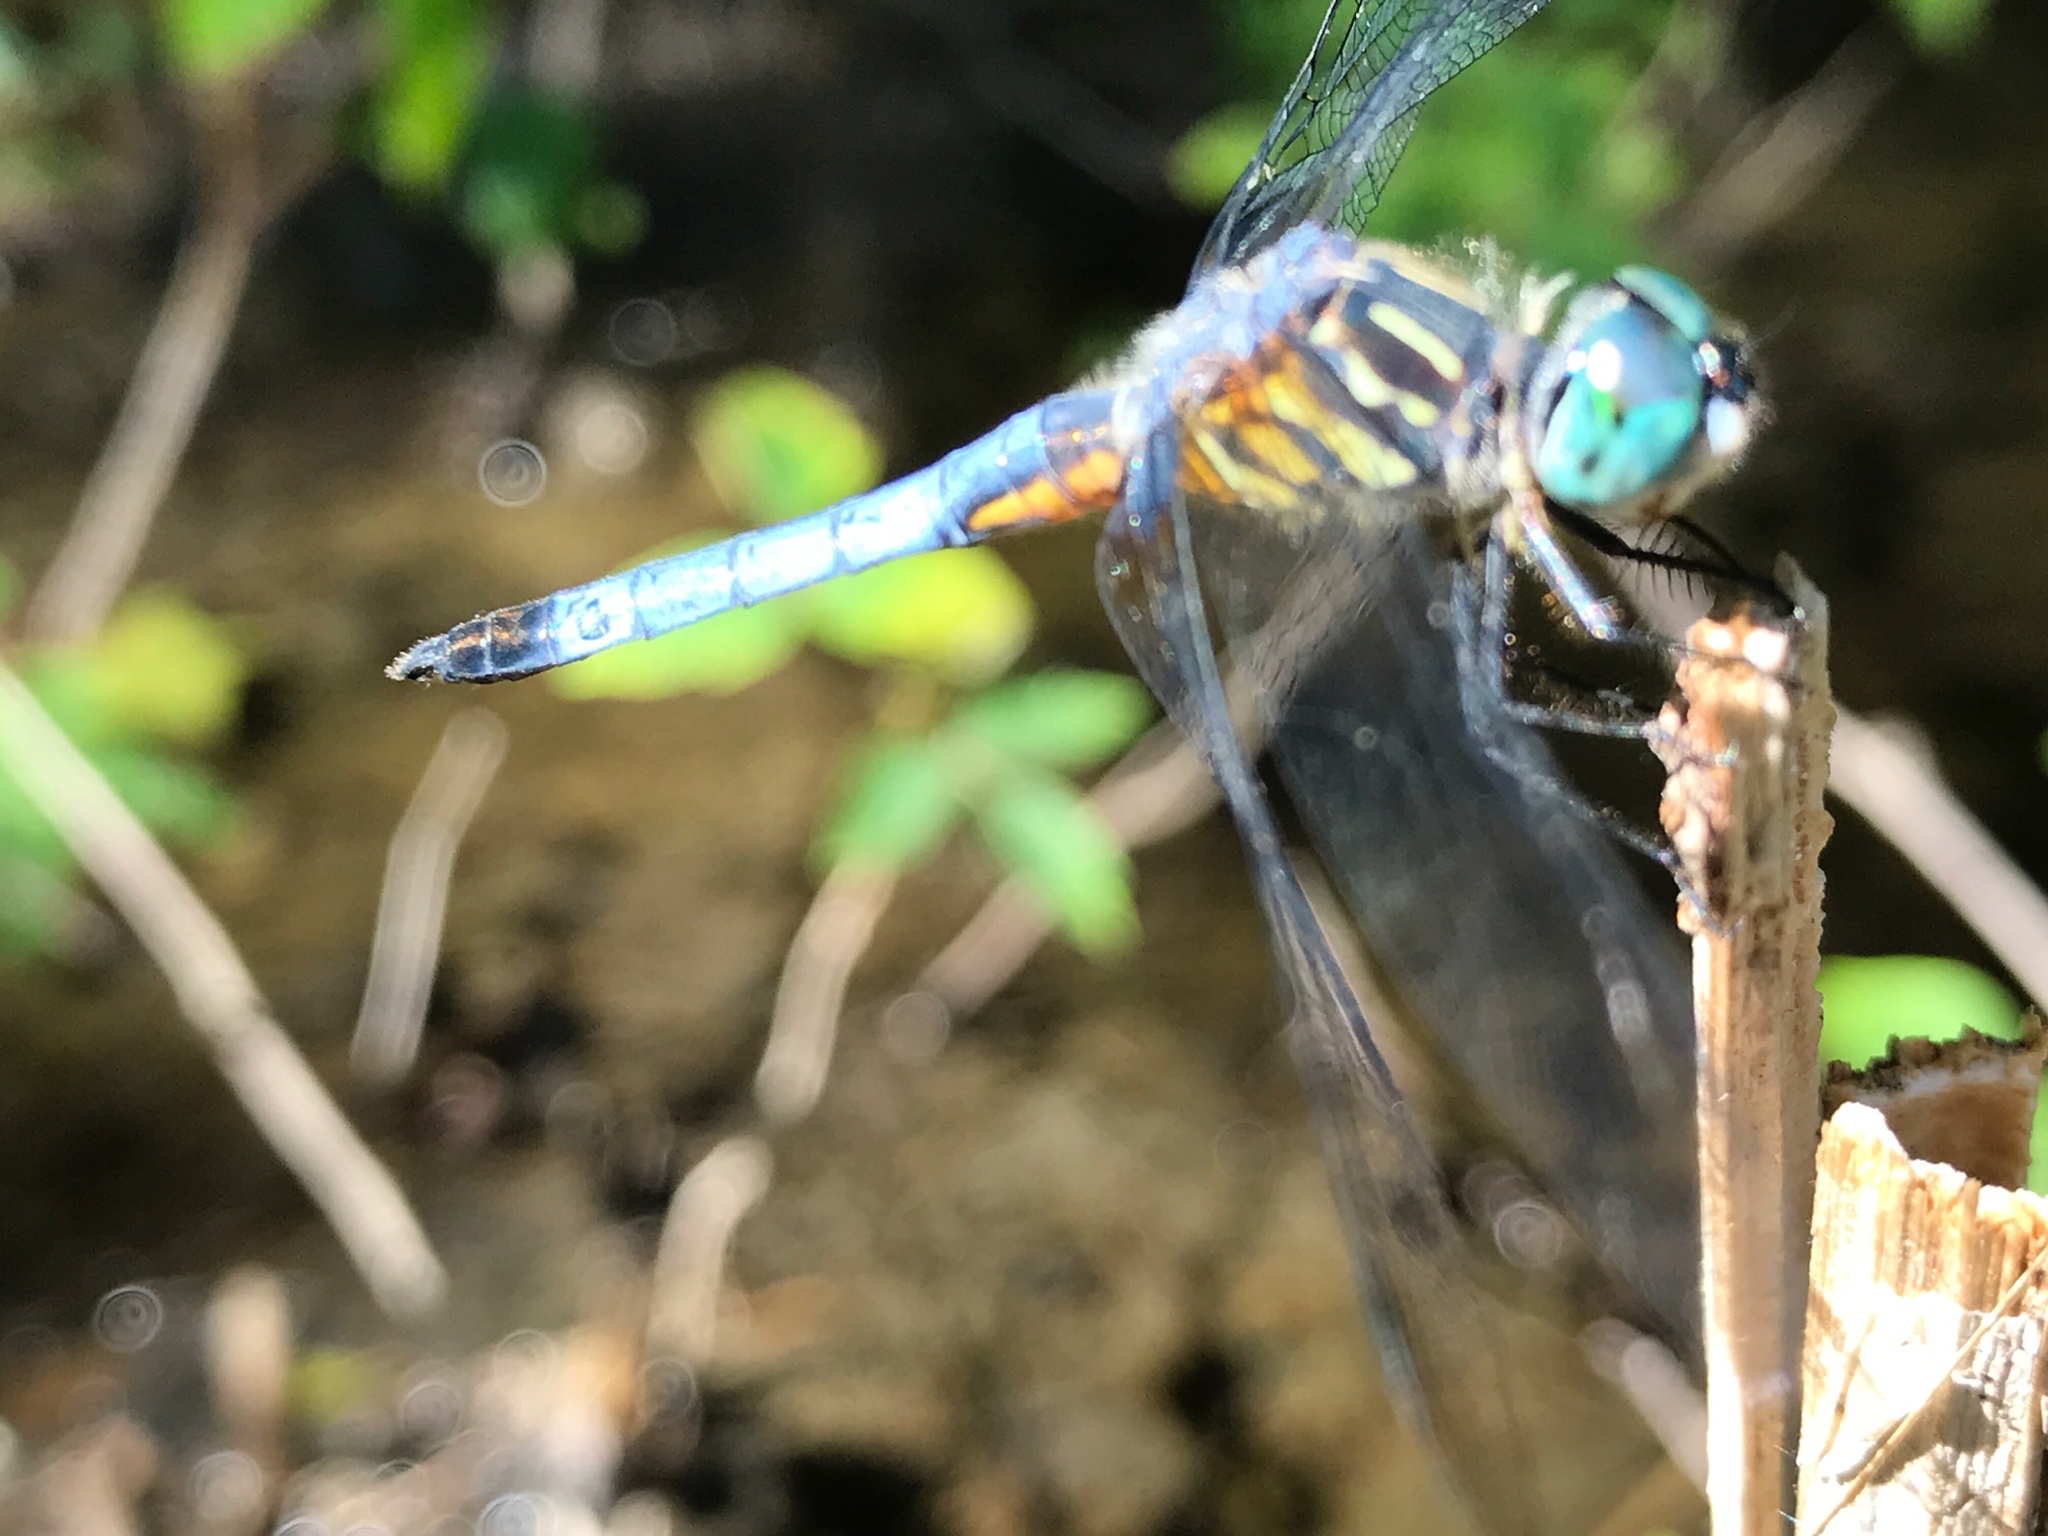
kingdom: Animalia
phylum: Arthropoda
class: Insecta
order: Odonata
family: Libellulidae
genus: Pachydiplax
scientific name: Pachydiplax longipennis
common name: Blue dasher
